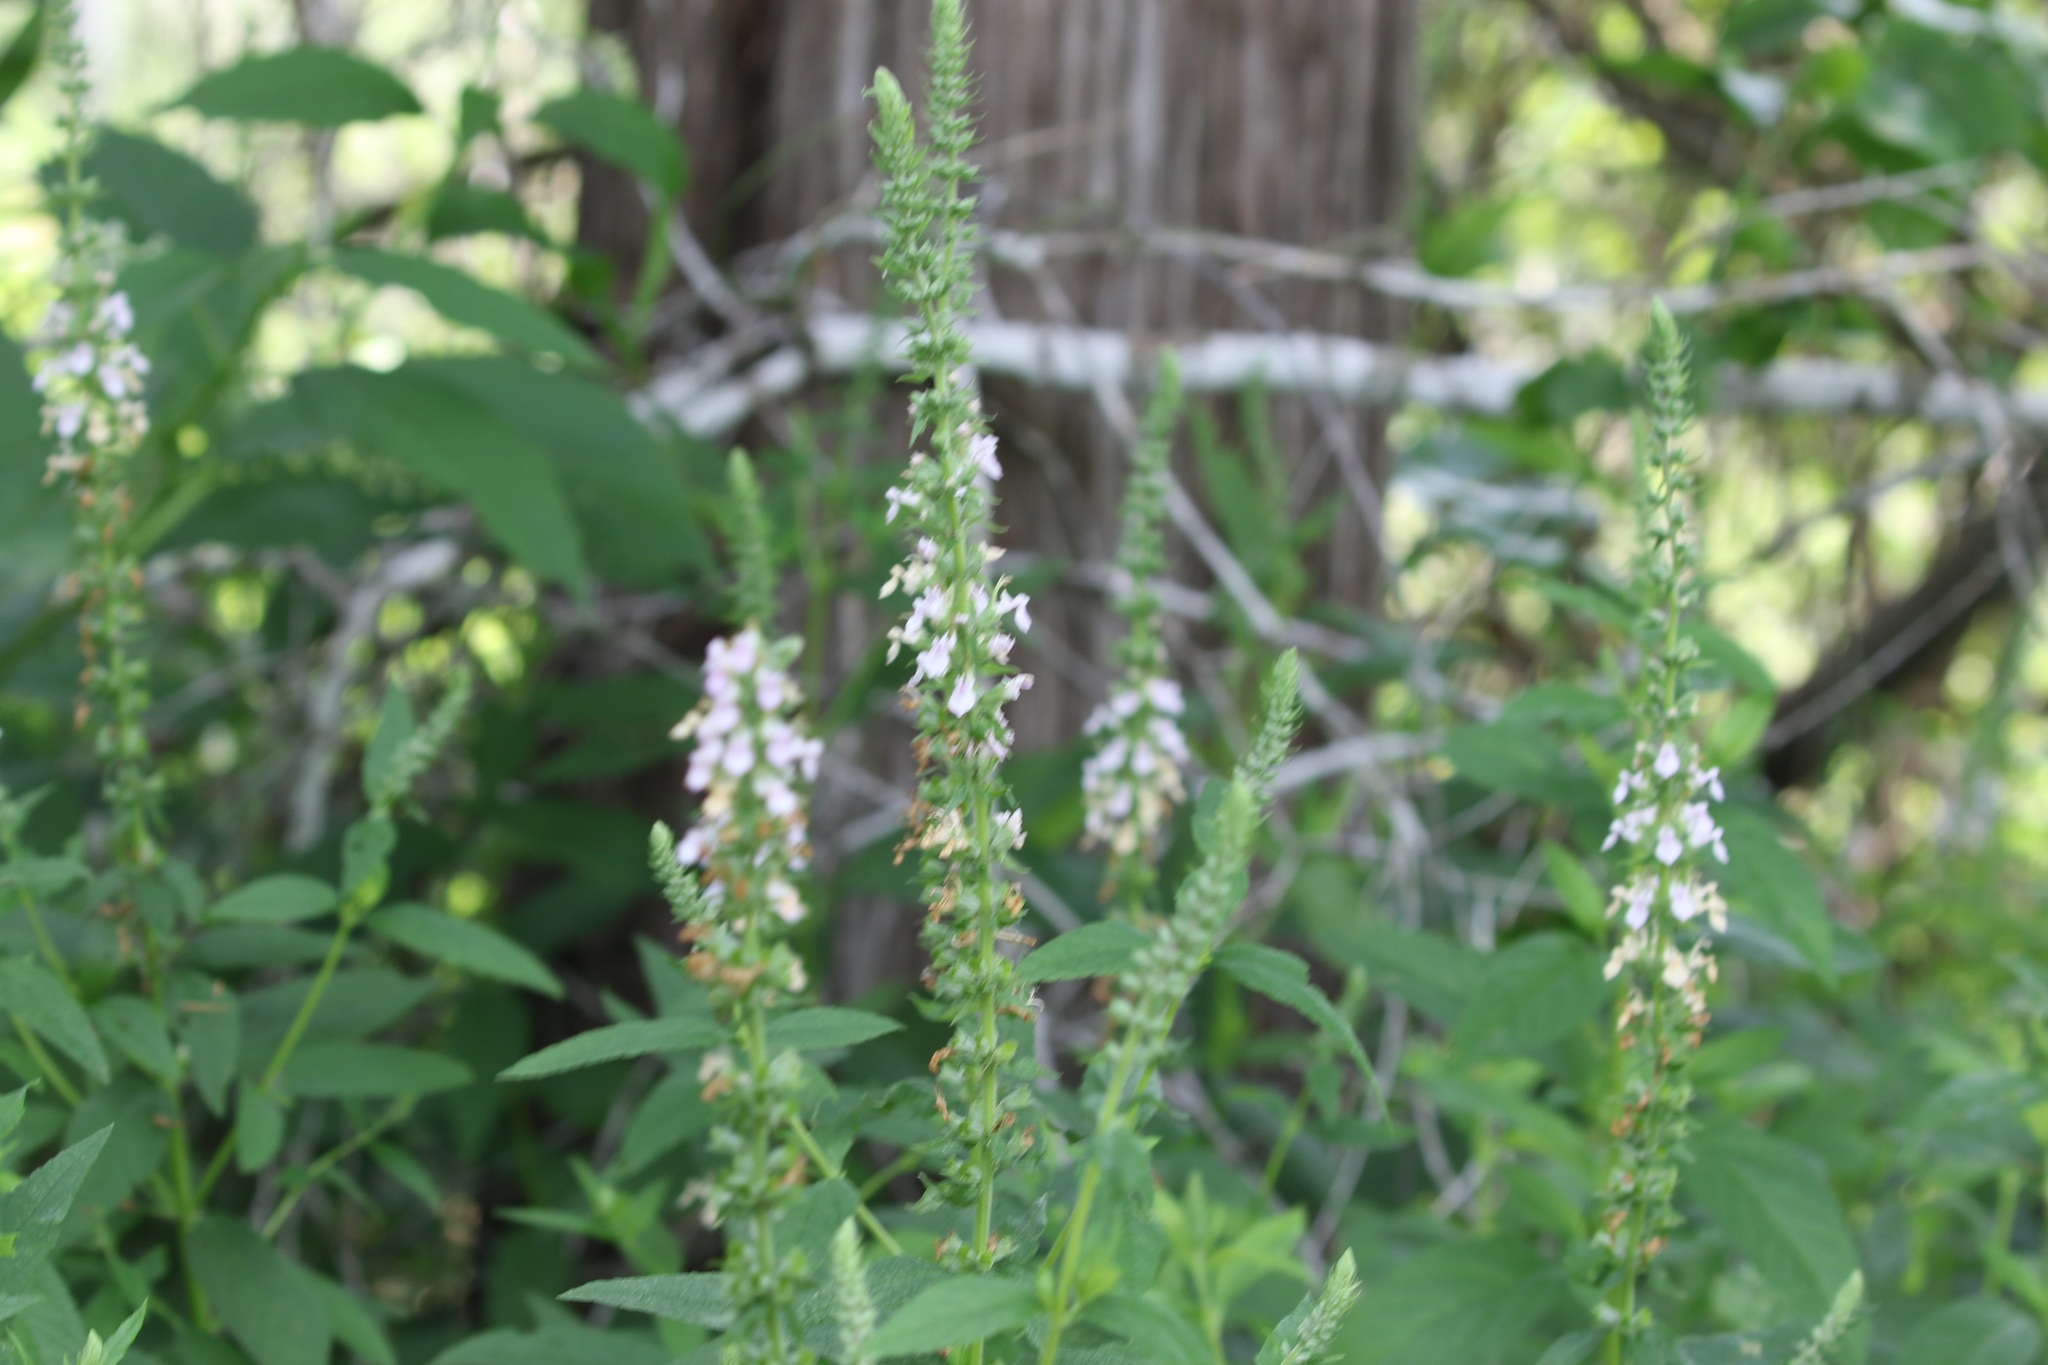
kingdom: Plantae
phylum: Tracheophyta
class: Magnoliopsida
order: Lamiales
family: Lamiaceae
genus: Teucrium
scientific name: Teucrium canadense
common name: American germander
